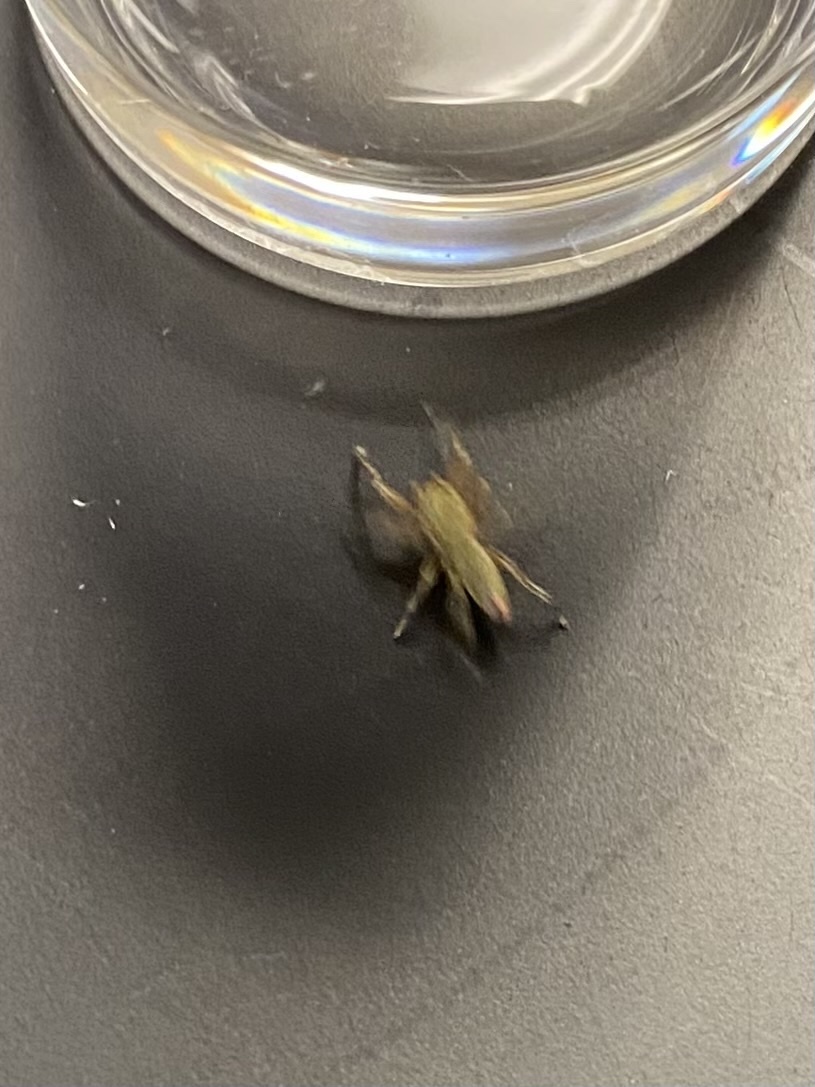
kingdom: Animalia
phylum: Arthropoda
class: Arachnida
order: Araneae
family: Salticidae
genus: Tutelina
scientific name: Tutelina elegans
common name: Thin-spined jumping spider
